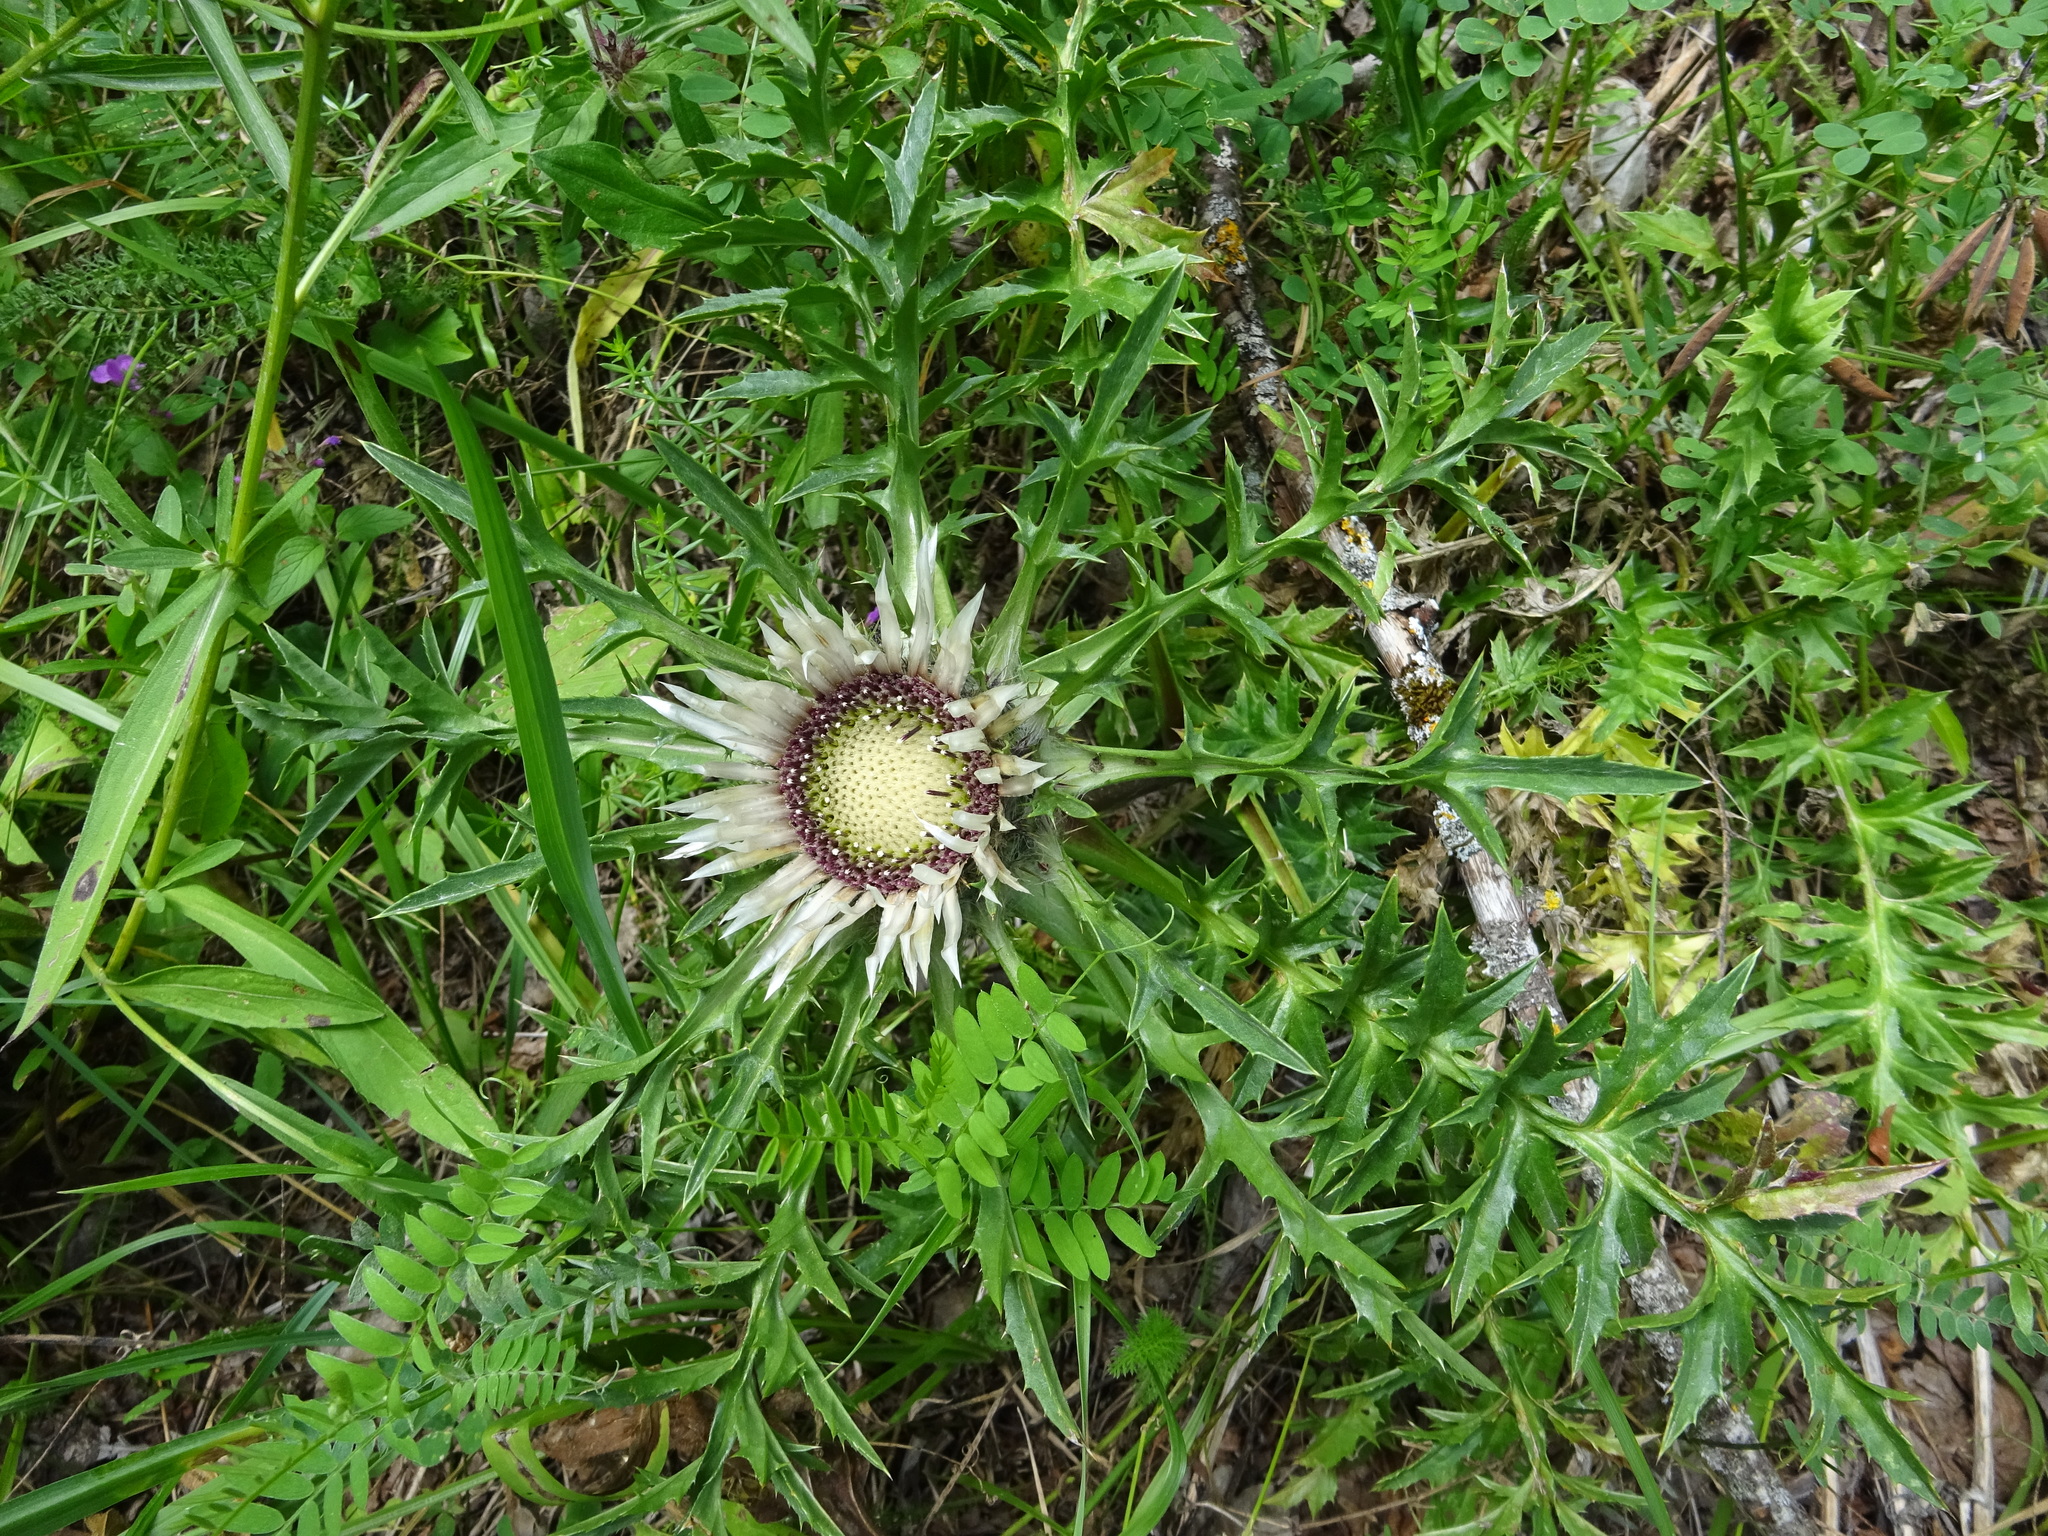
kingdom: Plantae
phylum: Tracheophyta
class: Magnoliopsida
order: Asterales
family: Asteraceae
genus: Carlina
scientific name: Carlina acaulis
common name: Stemless carline thistle
